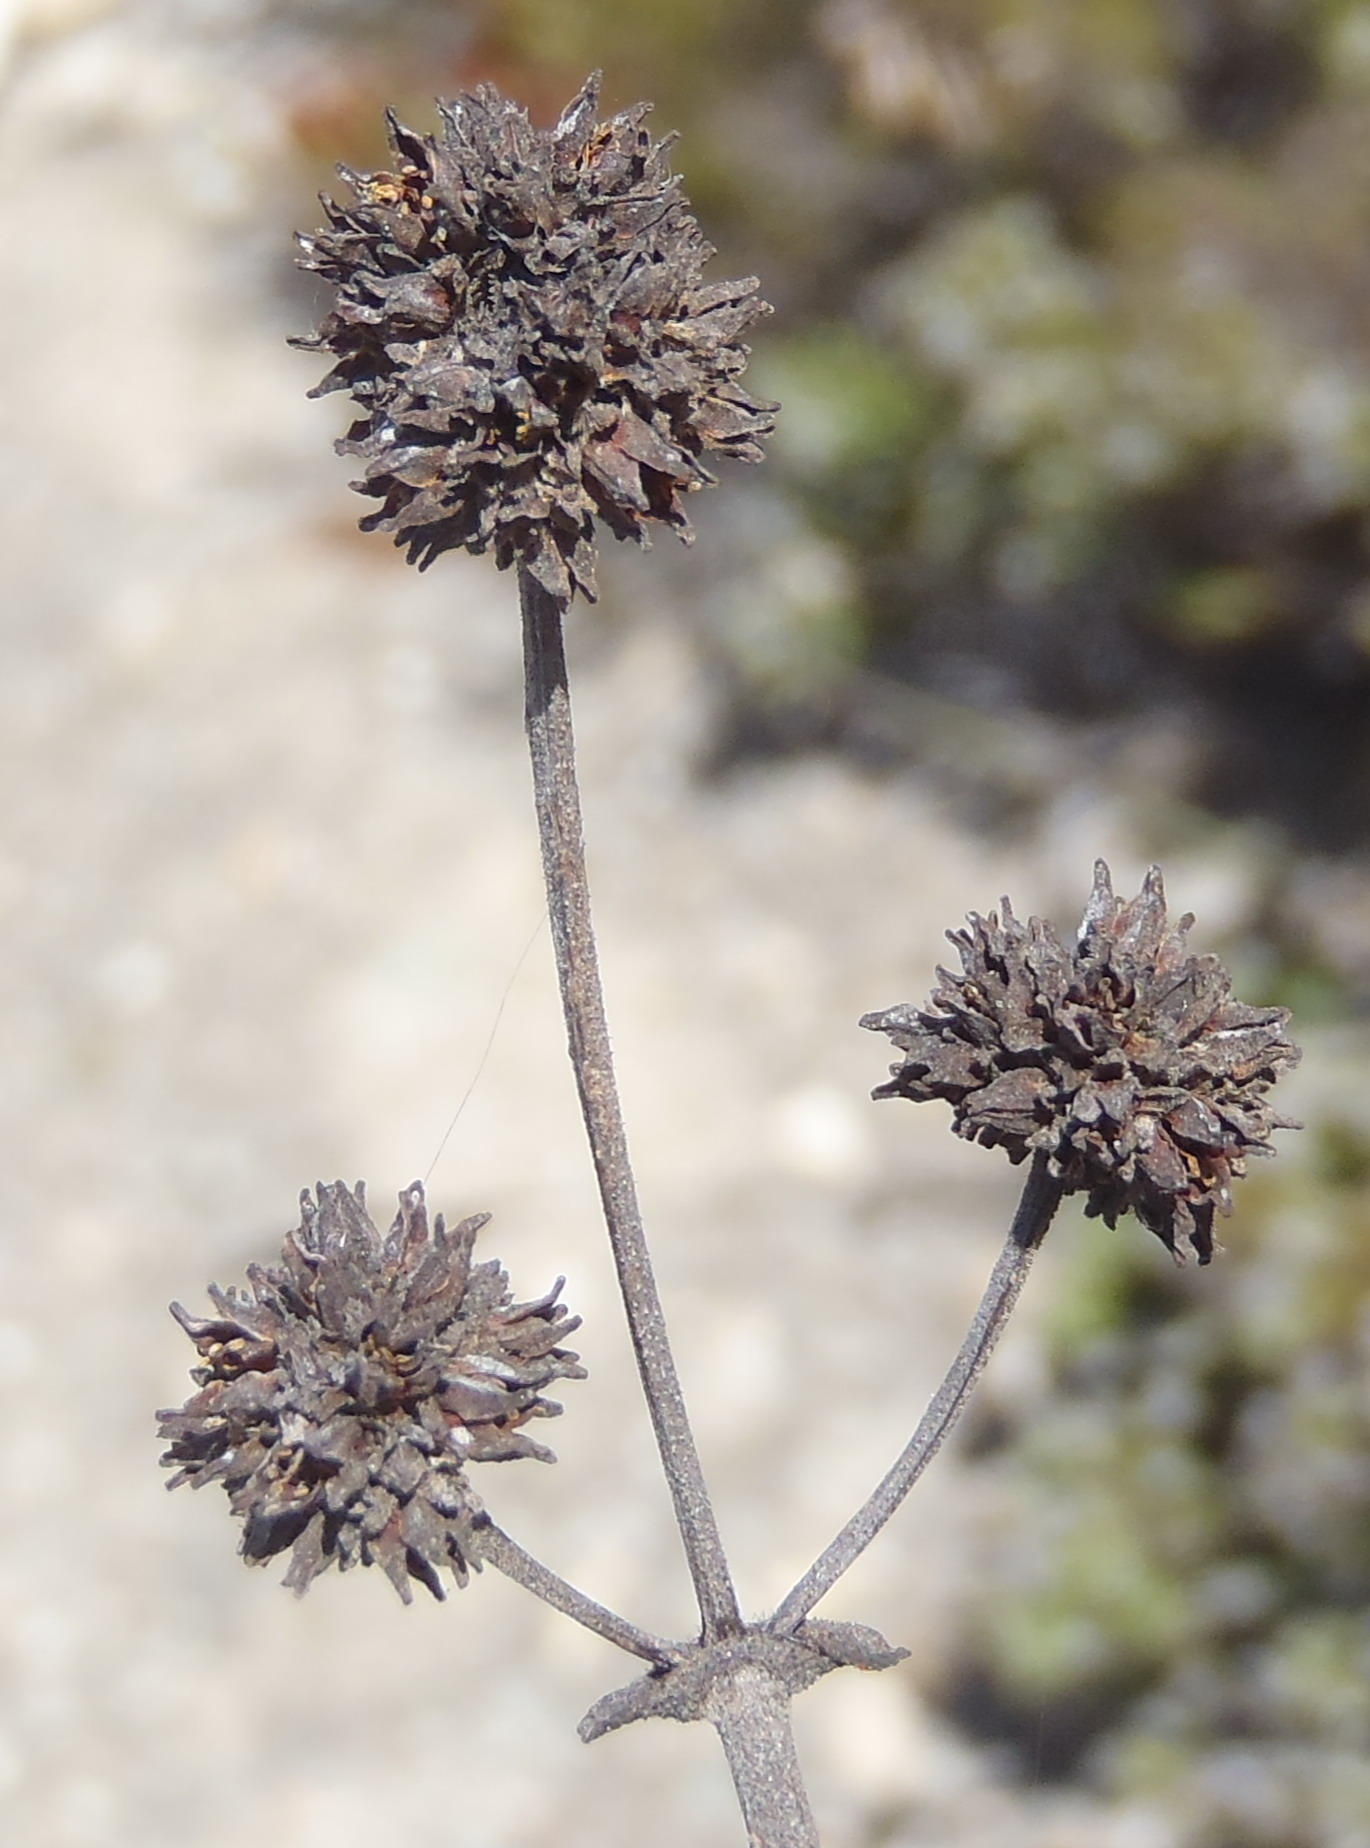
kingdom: Plantae
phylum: Tracheophyta
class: Magnoliopsida
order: Saxifragales
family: Crassulaceae
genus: Crassula
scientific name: Crassula atropurpurea
